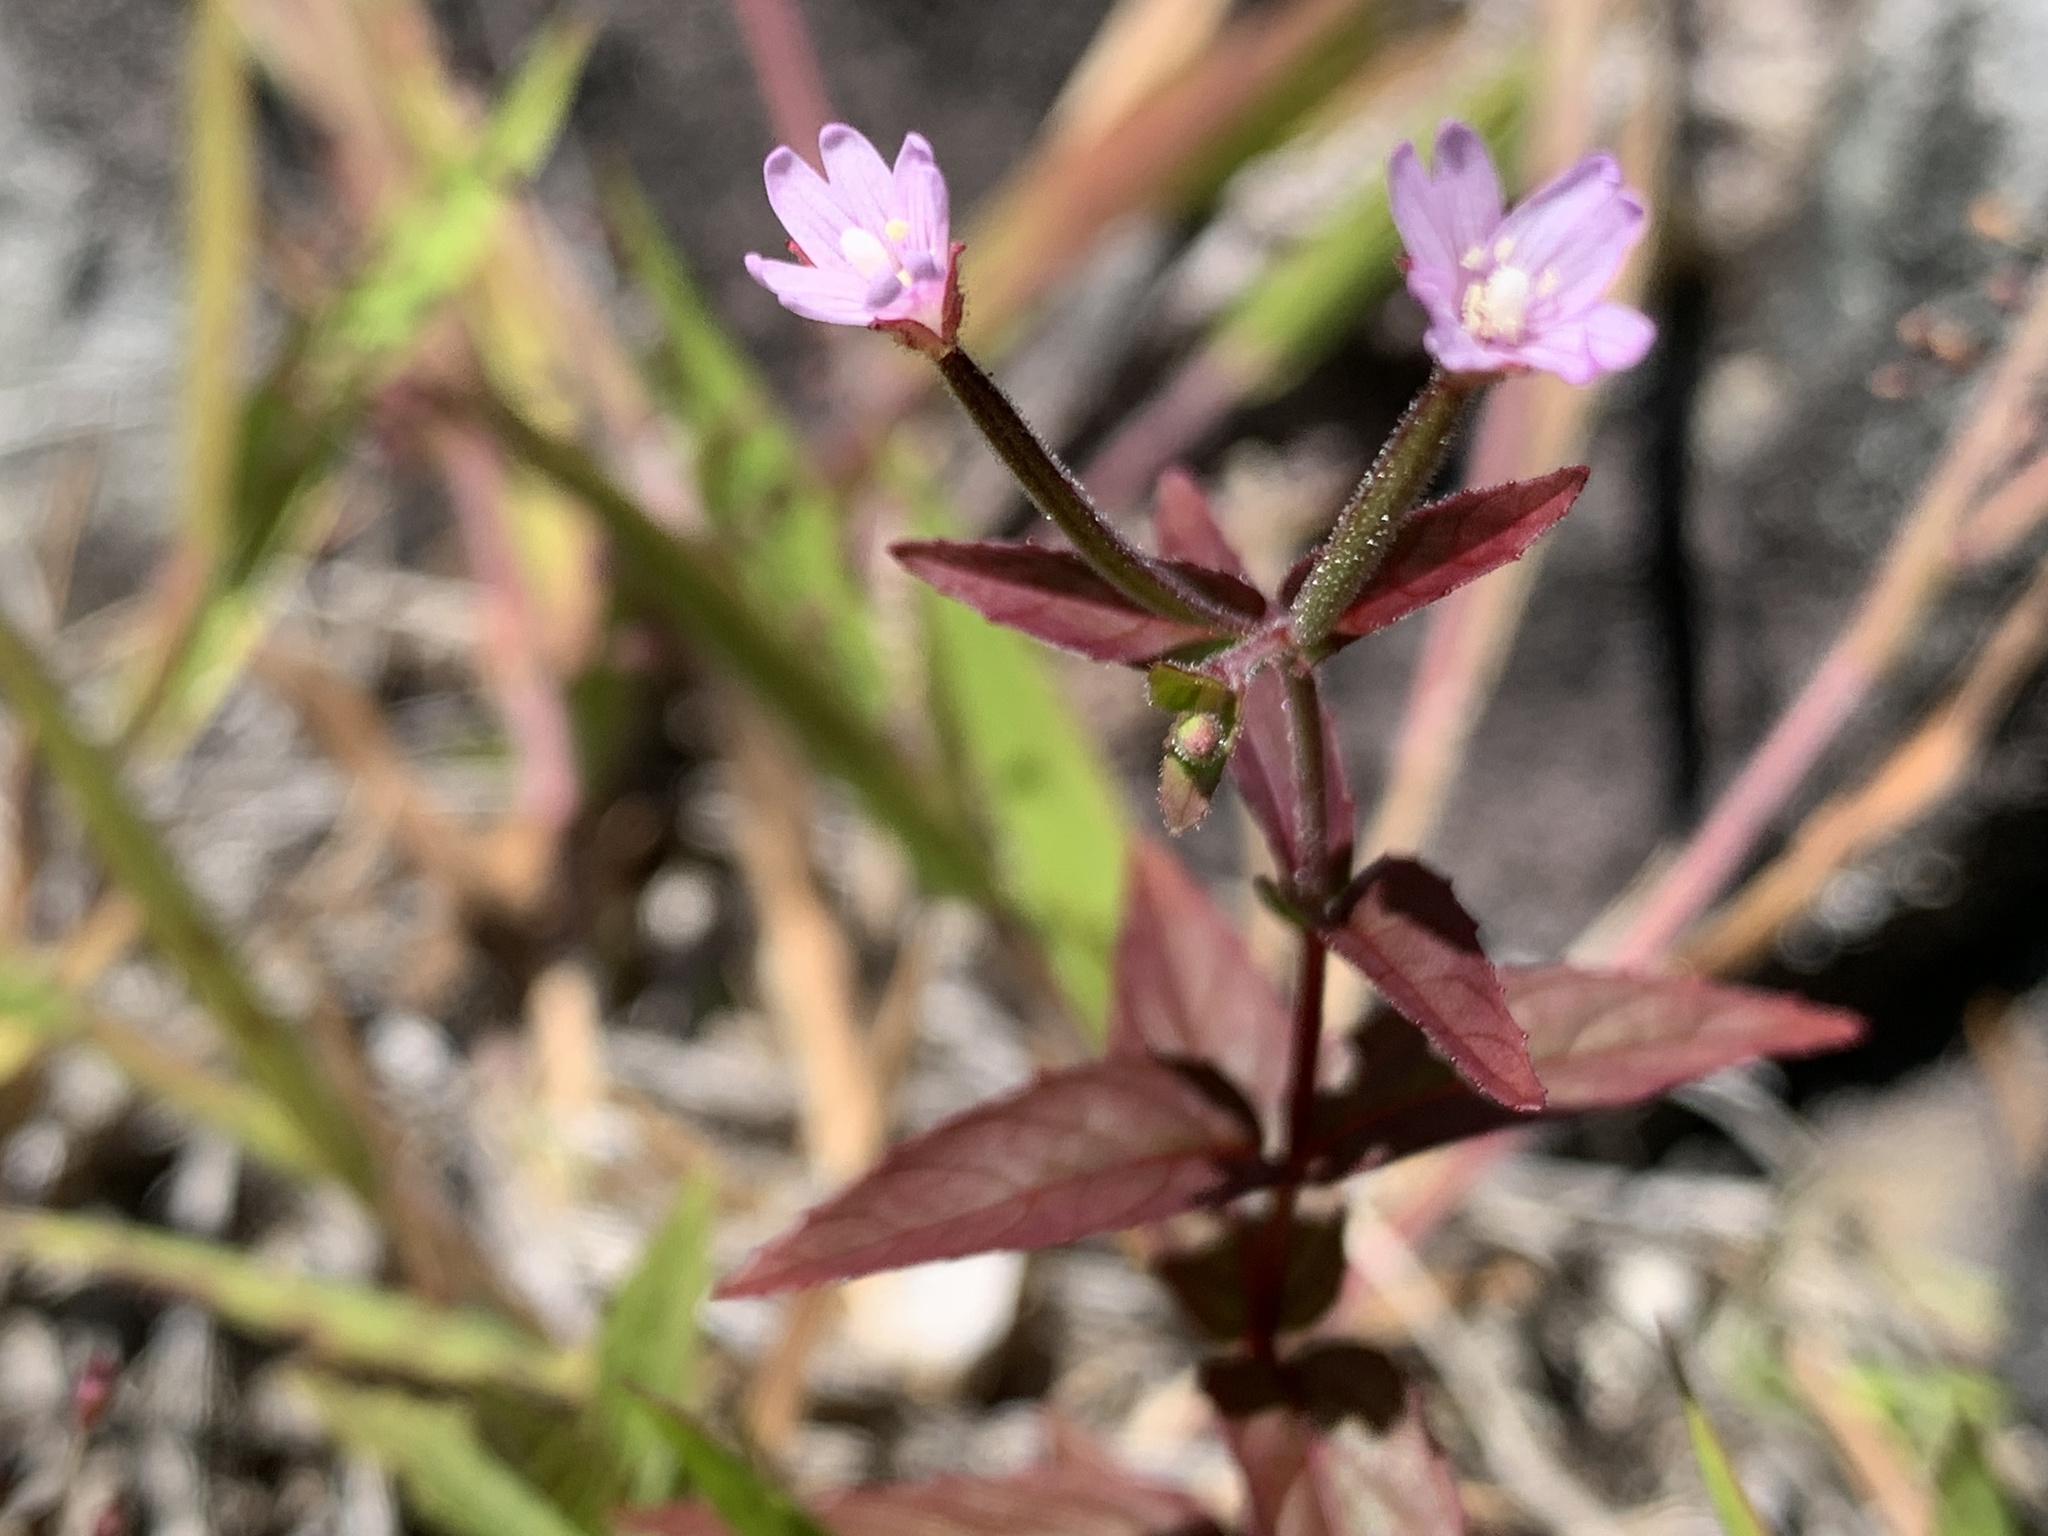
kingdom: Plantae
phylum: Tracheophyta
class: Magnoliopsida
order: Myrtales
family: Onagraceae
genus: Epilobium
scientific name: Epilobium ciliatum
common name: American willowherb
